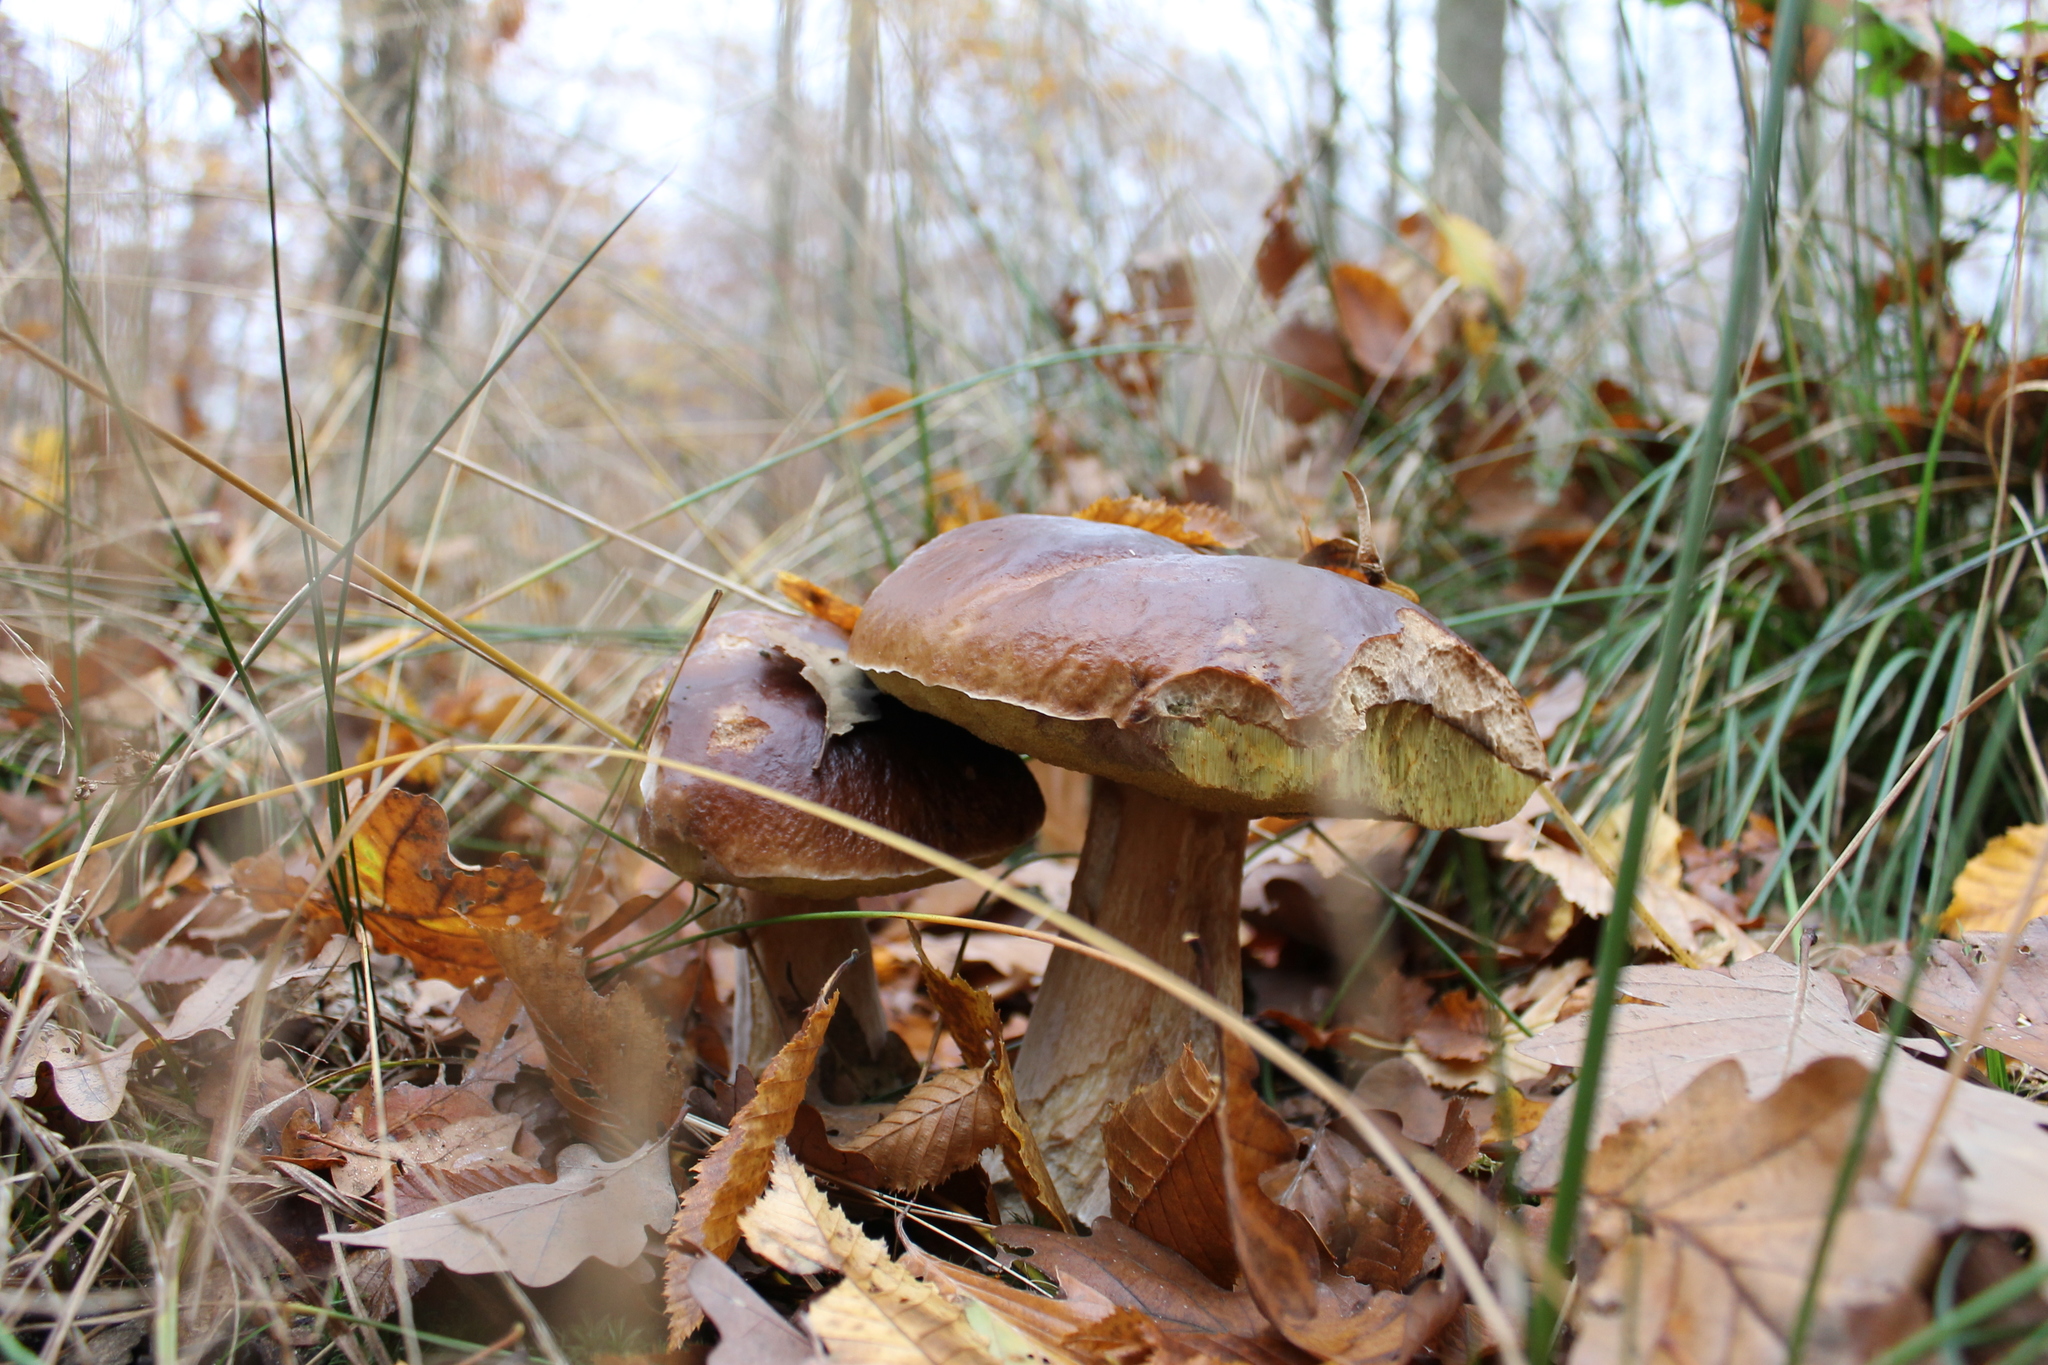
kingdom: Fungi
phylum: Basidiomycota
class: Agaricomycetes
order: Boletales
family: Boletaceae
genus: Boletus
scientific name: Boletus edulis
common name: Cep
